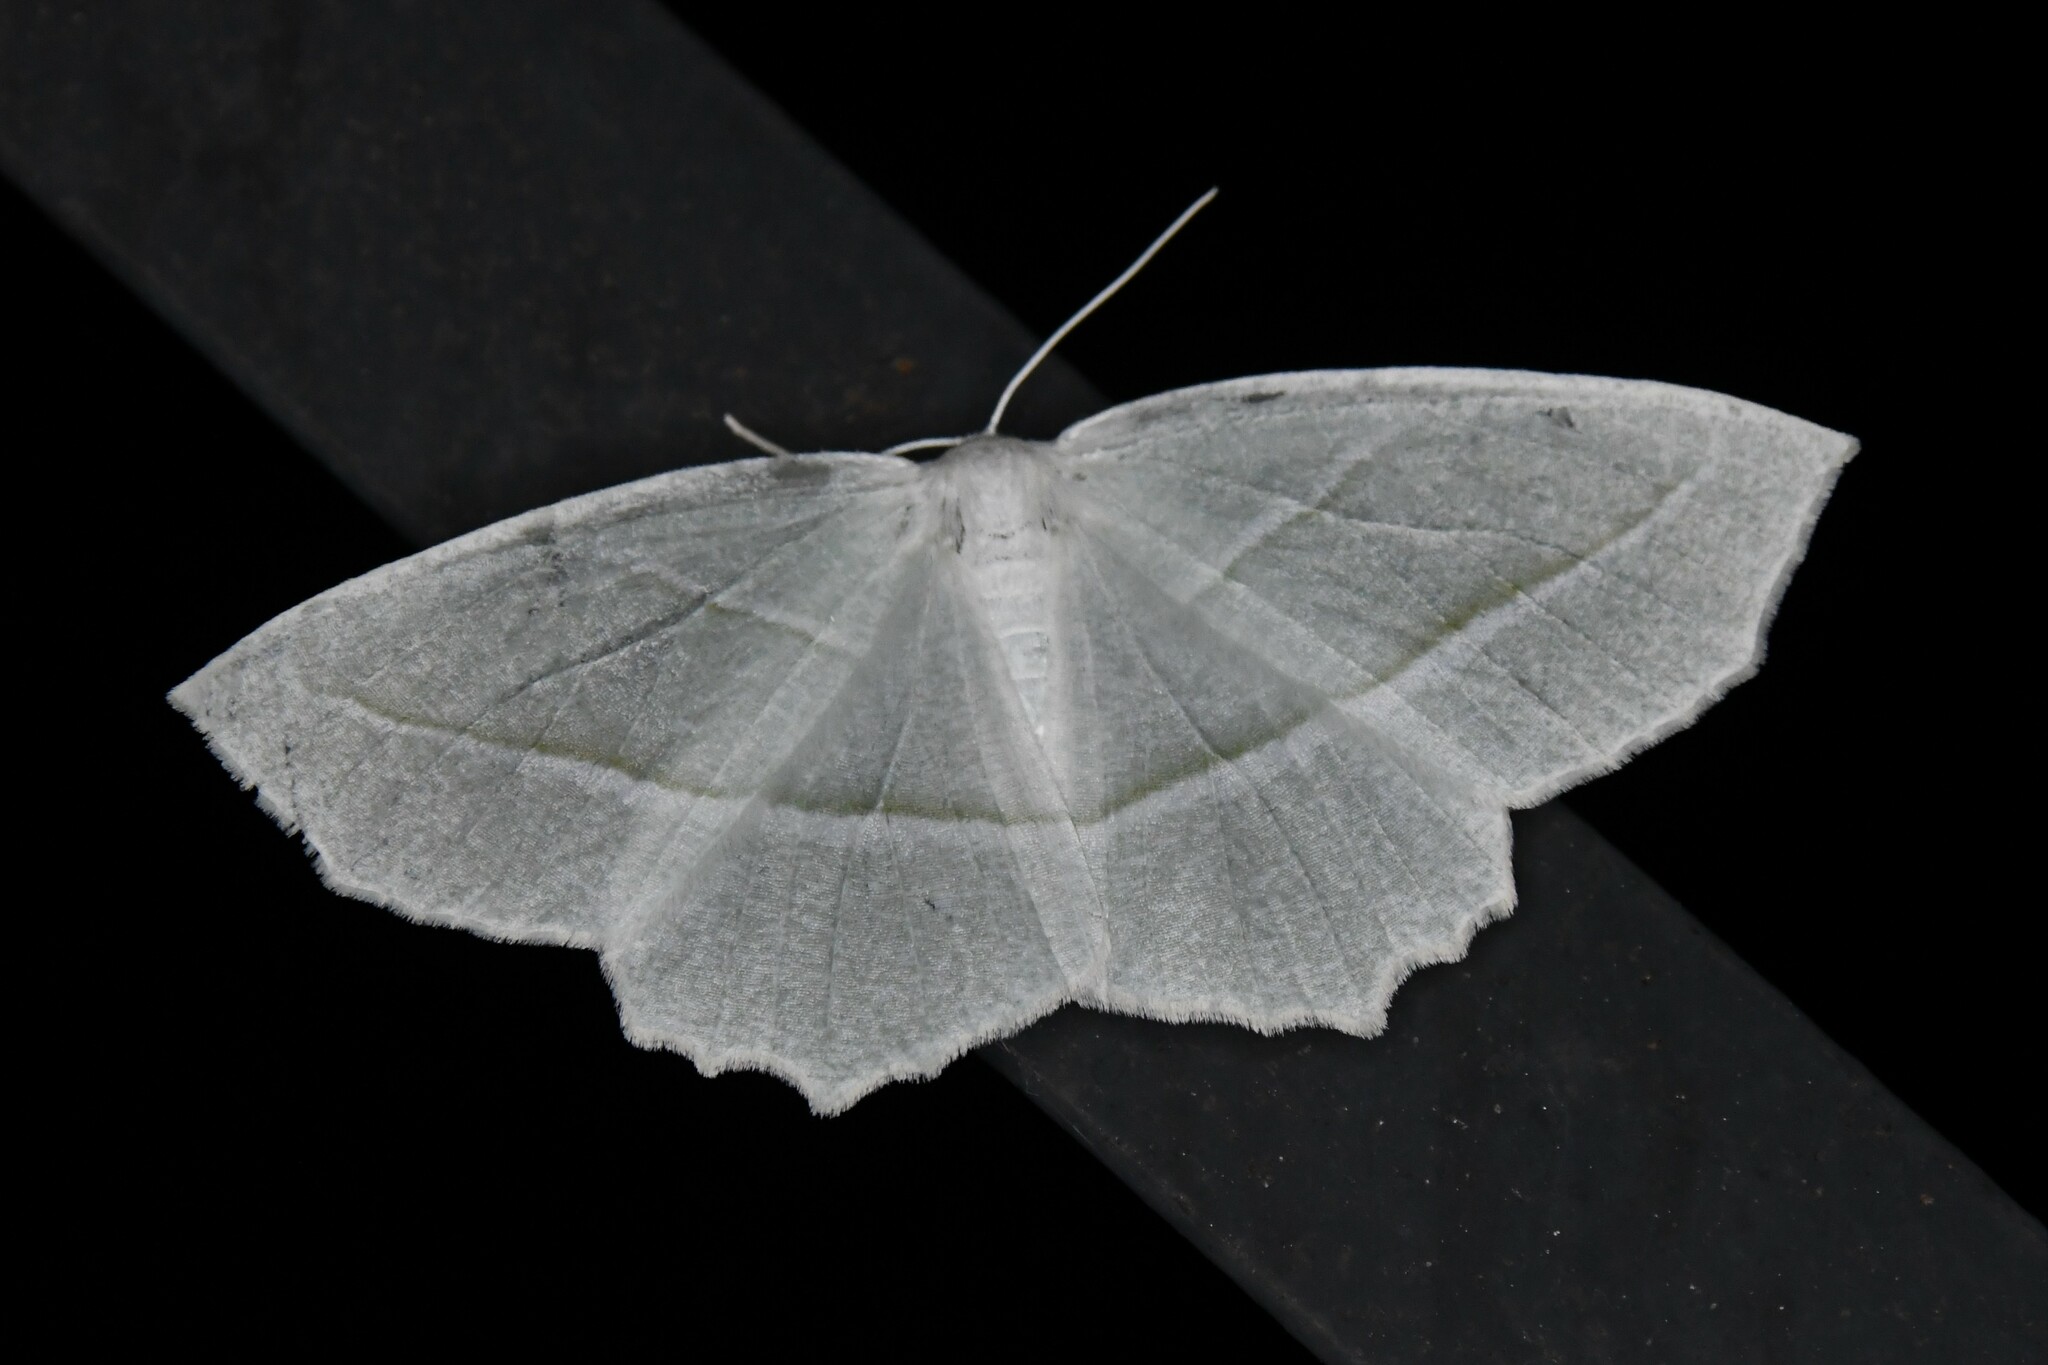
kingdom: Animalia
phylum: Arthropoda
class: Insecta
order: Lepidoptera
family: Geometridae
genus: Campaea
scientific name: Campaea perlata
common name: Fringed looper
